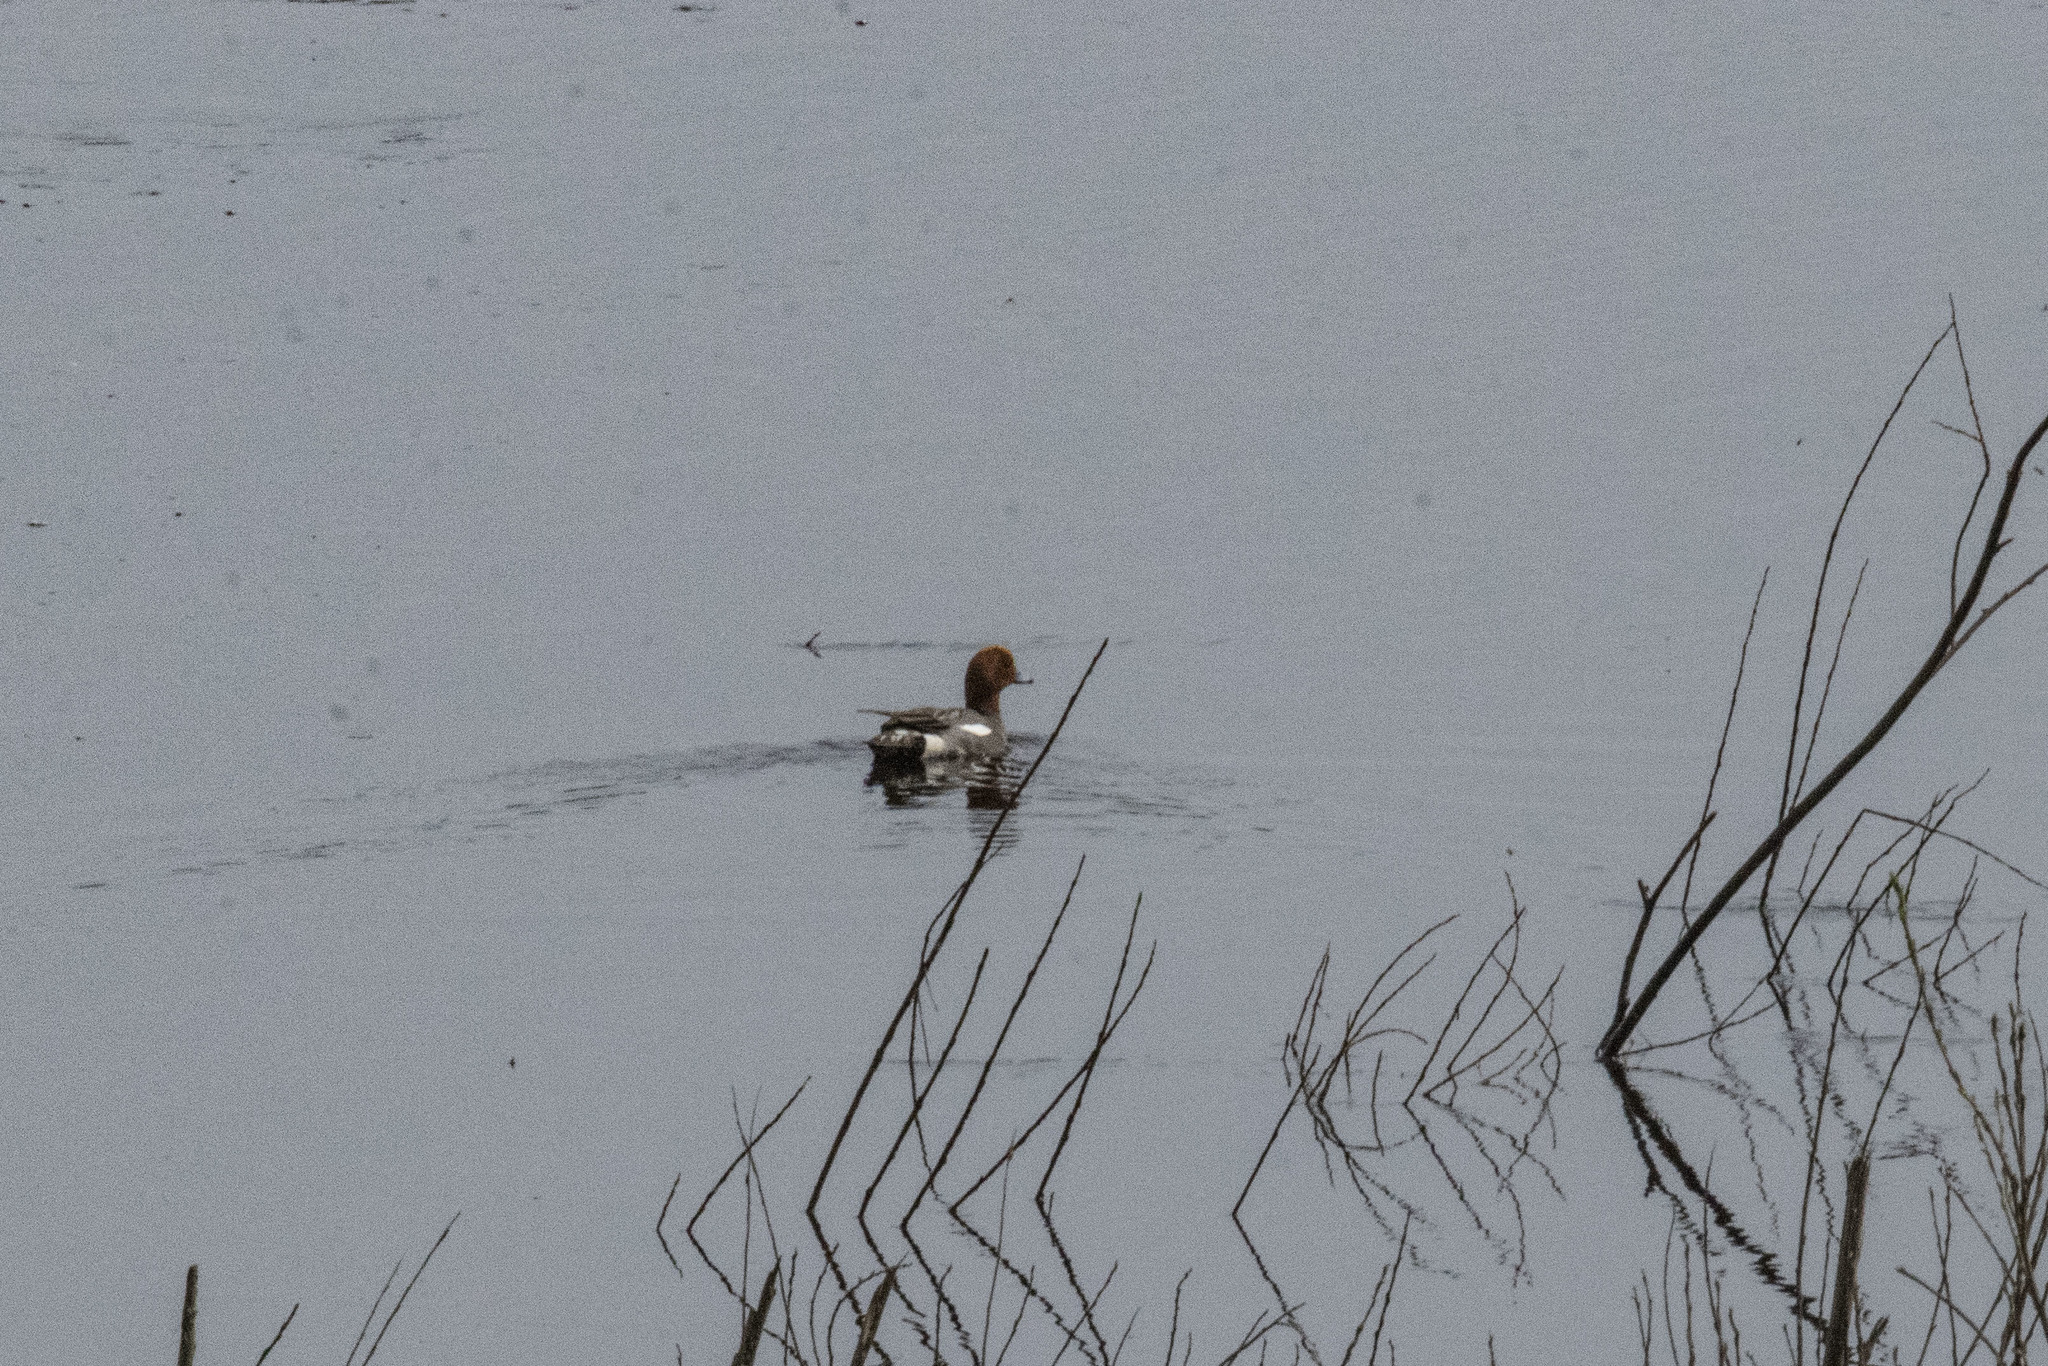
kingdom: Animalia
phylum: Chordata
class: Aves
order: Anseriformes
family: Anatidae
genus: Mareca
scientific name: Mareca penelope
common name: Eurasian wigeon
